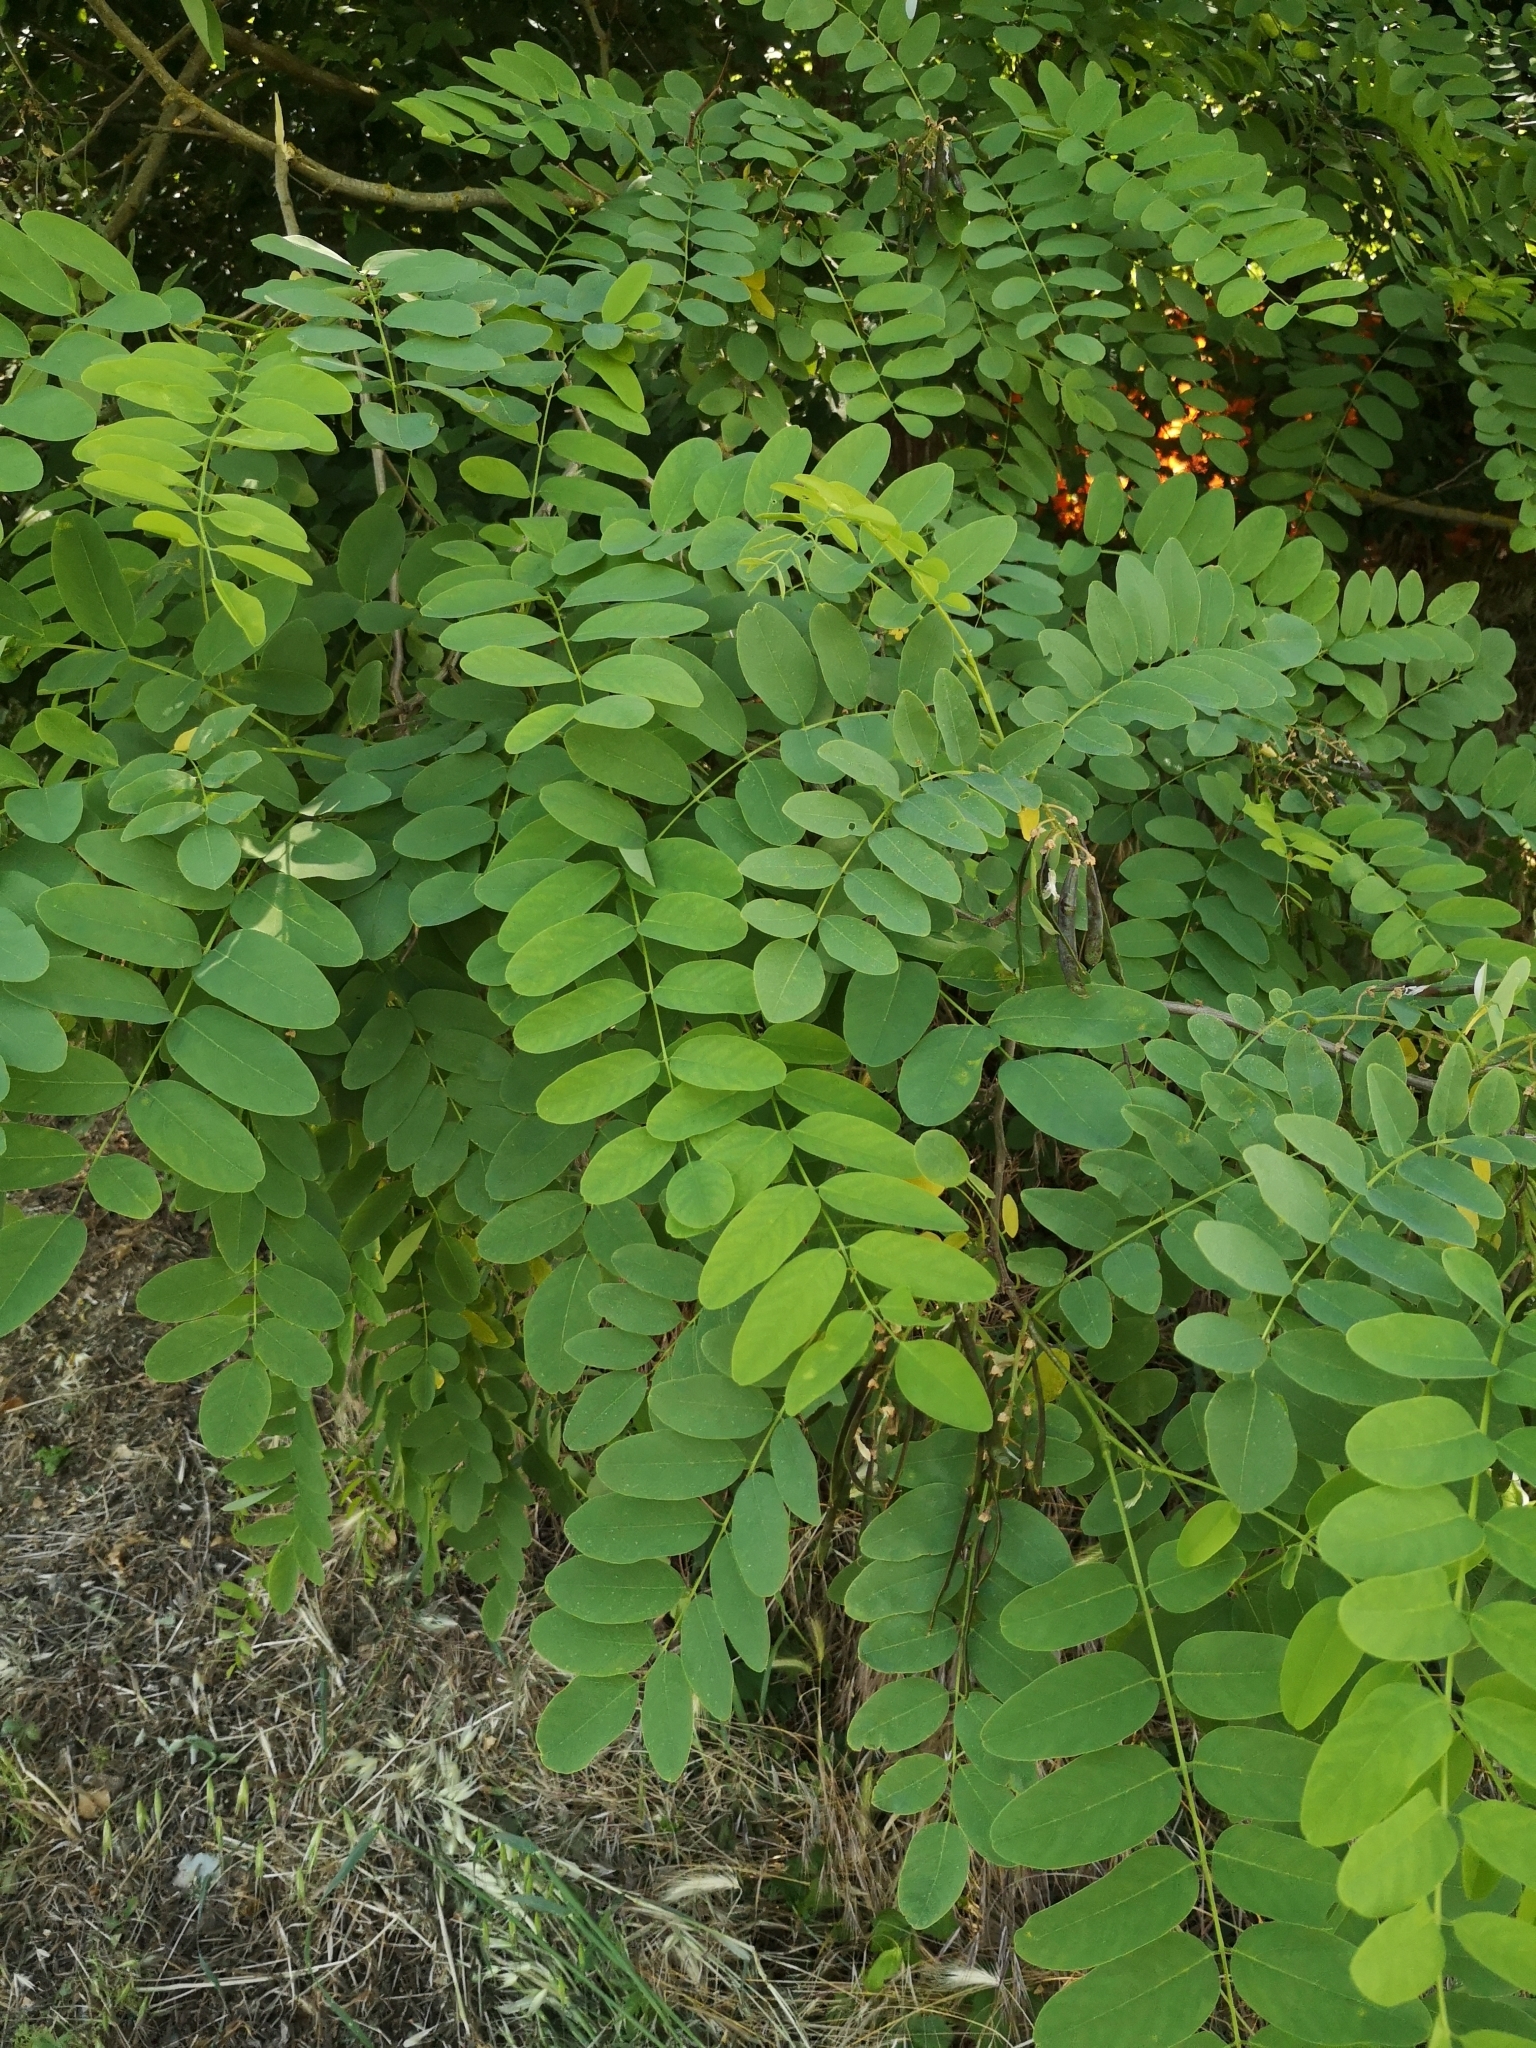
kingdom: Plantae
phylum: Tracheophyta
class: Magnoliopsida
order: Fabales
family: Fabaceae
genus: Robinia
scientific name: Robinia pseudoacacia
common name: Black locust
